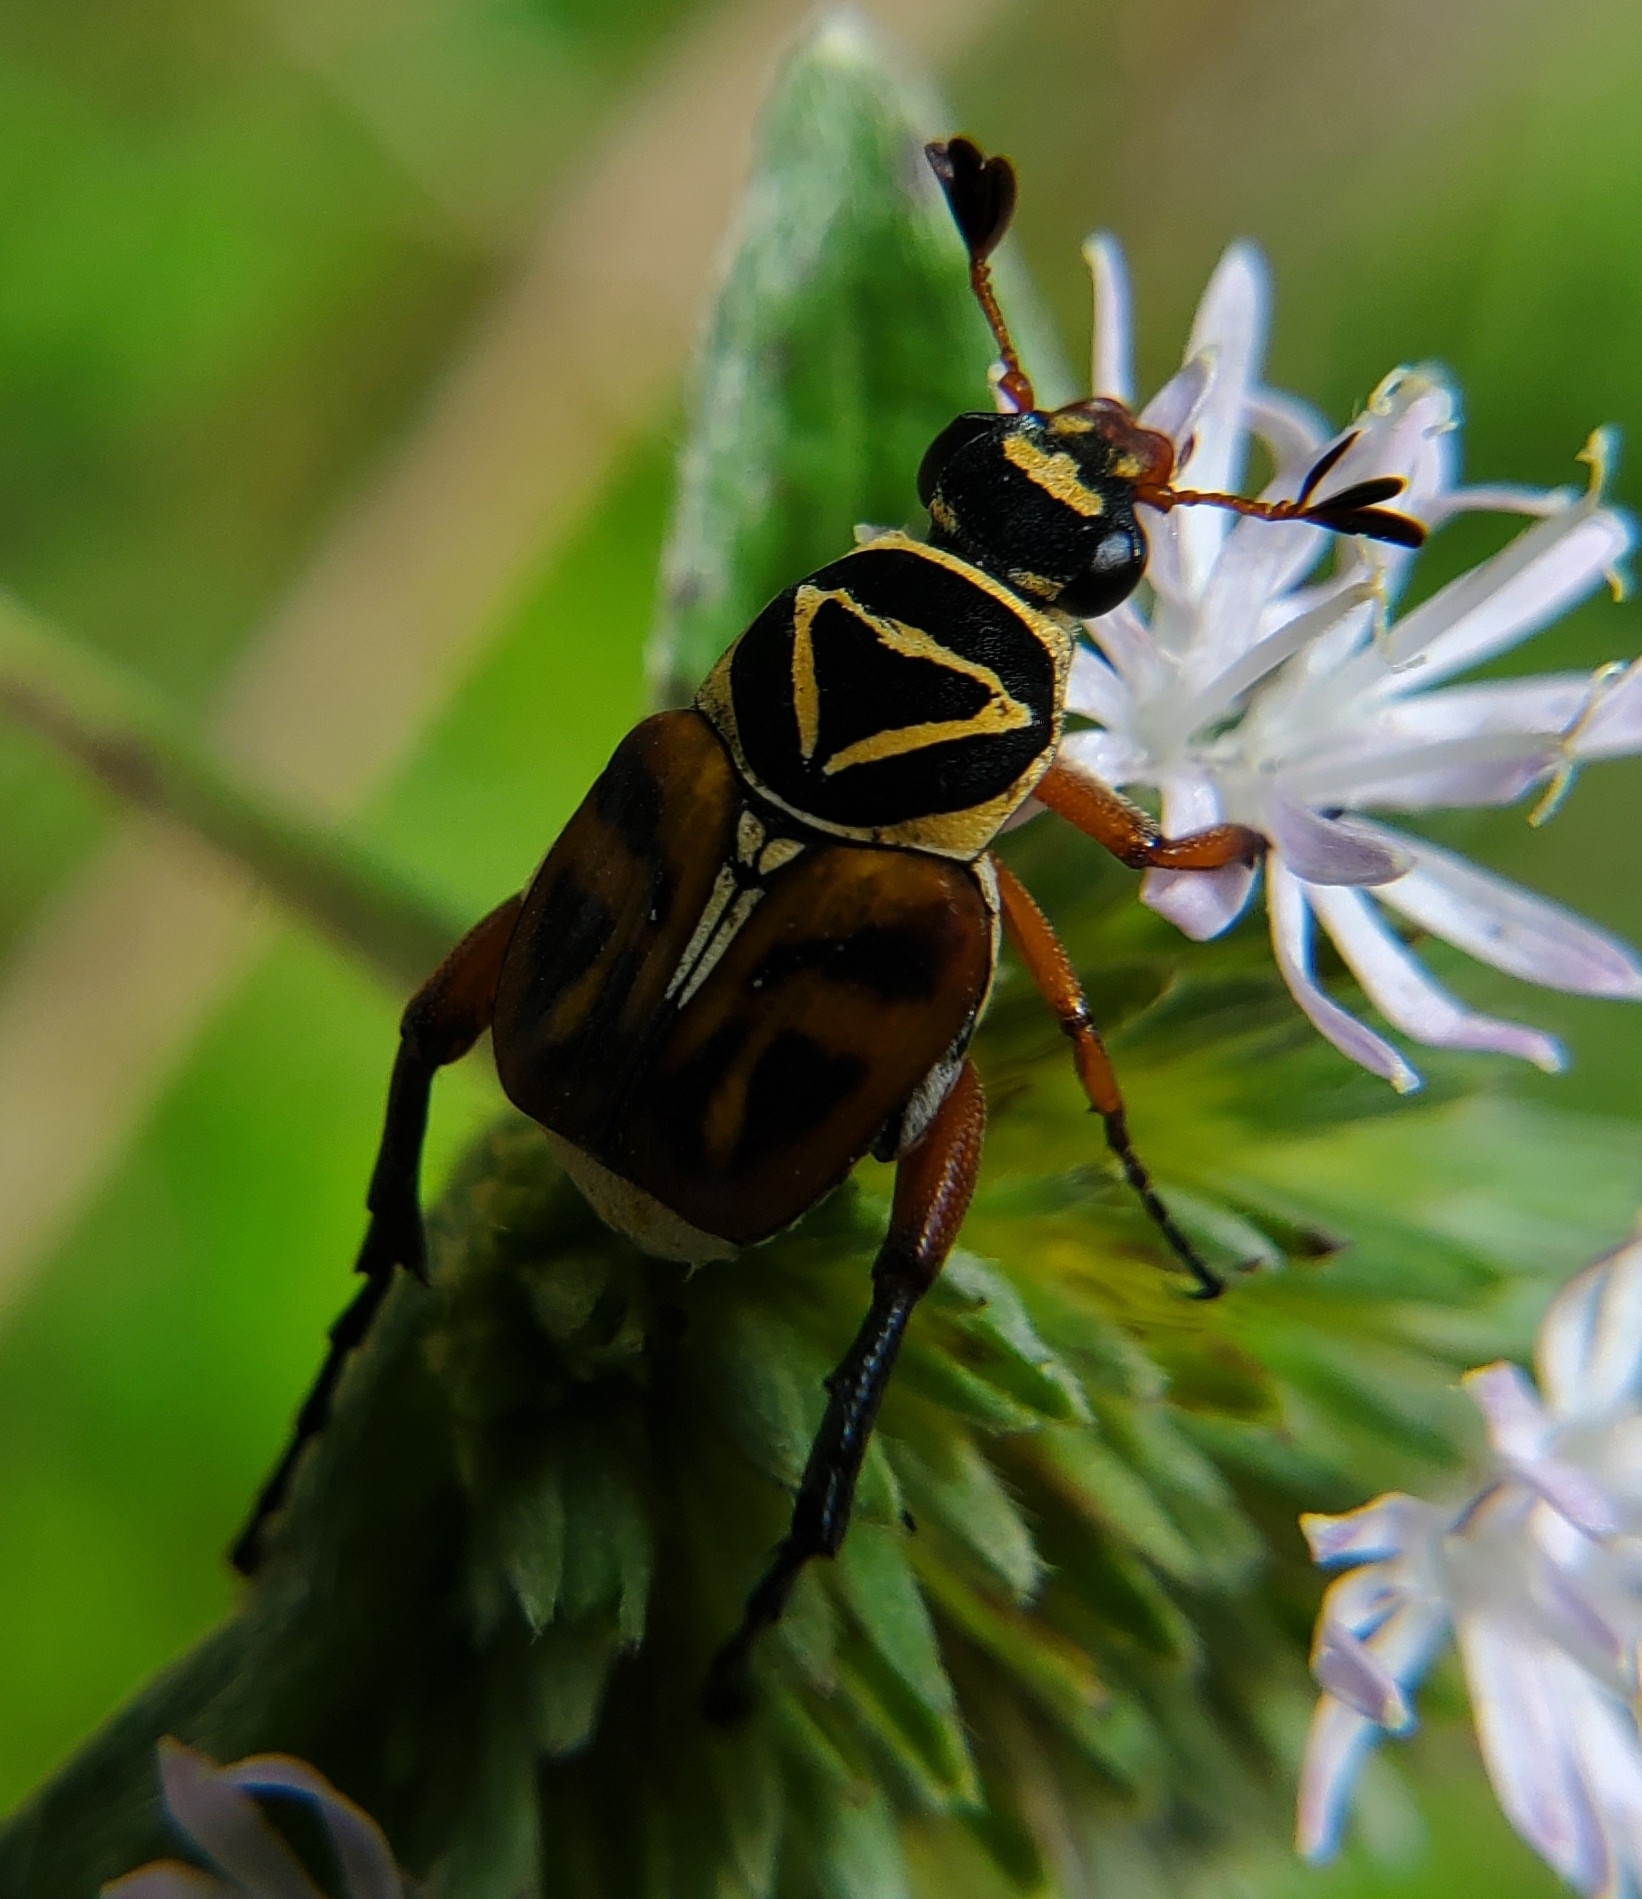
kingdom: Animalia
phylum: Arthropoda
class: Insecta
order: Coleoptera
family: Scarabaeidae
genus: Trigonopeltastes
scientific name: Trigonopeltastes delta
